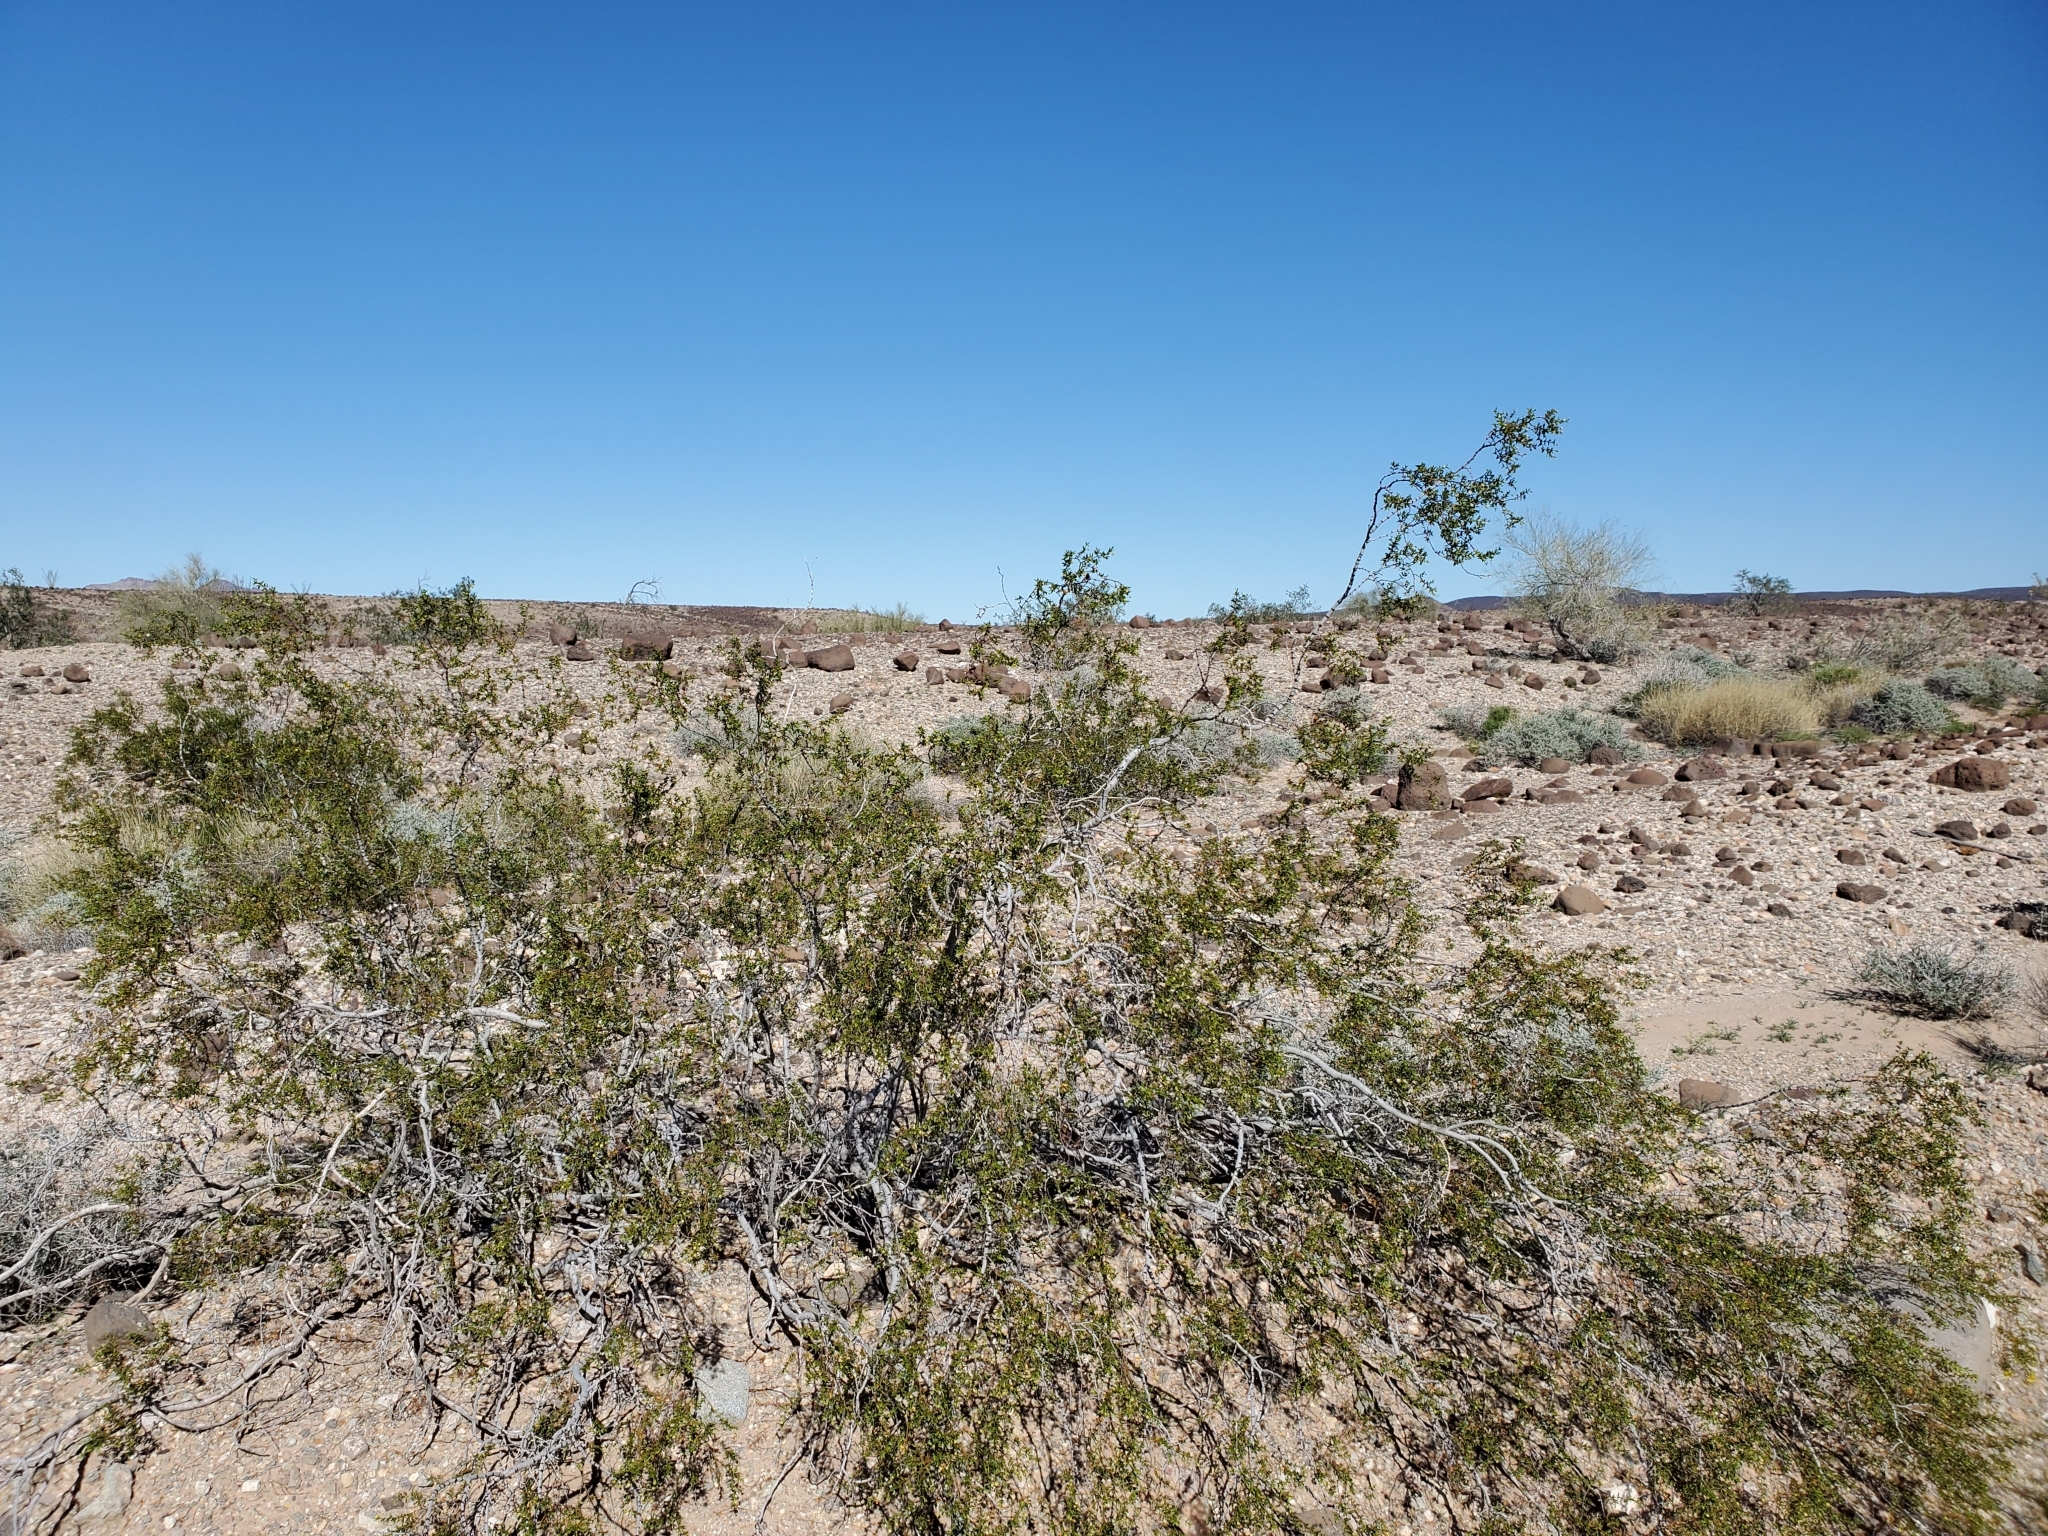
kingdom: Plantae
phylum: Tracheophyta
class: Magnoliopsida
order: Zygophyllales
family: Zygophyllaceae
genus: Larrea
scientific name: Larrea tridentata
